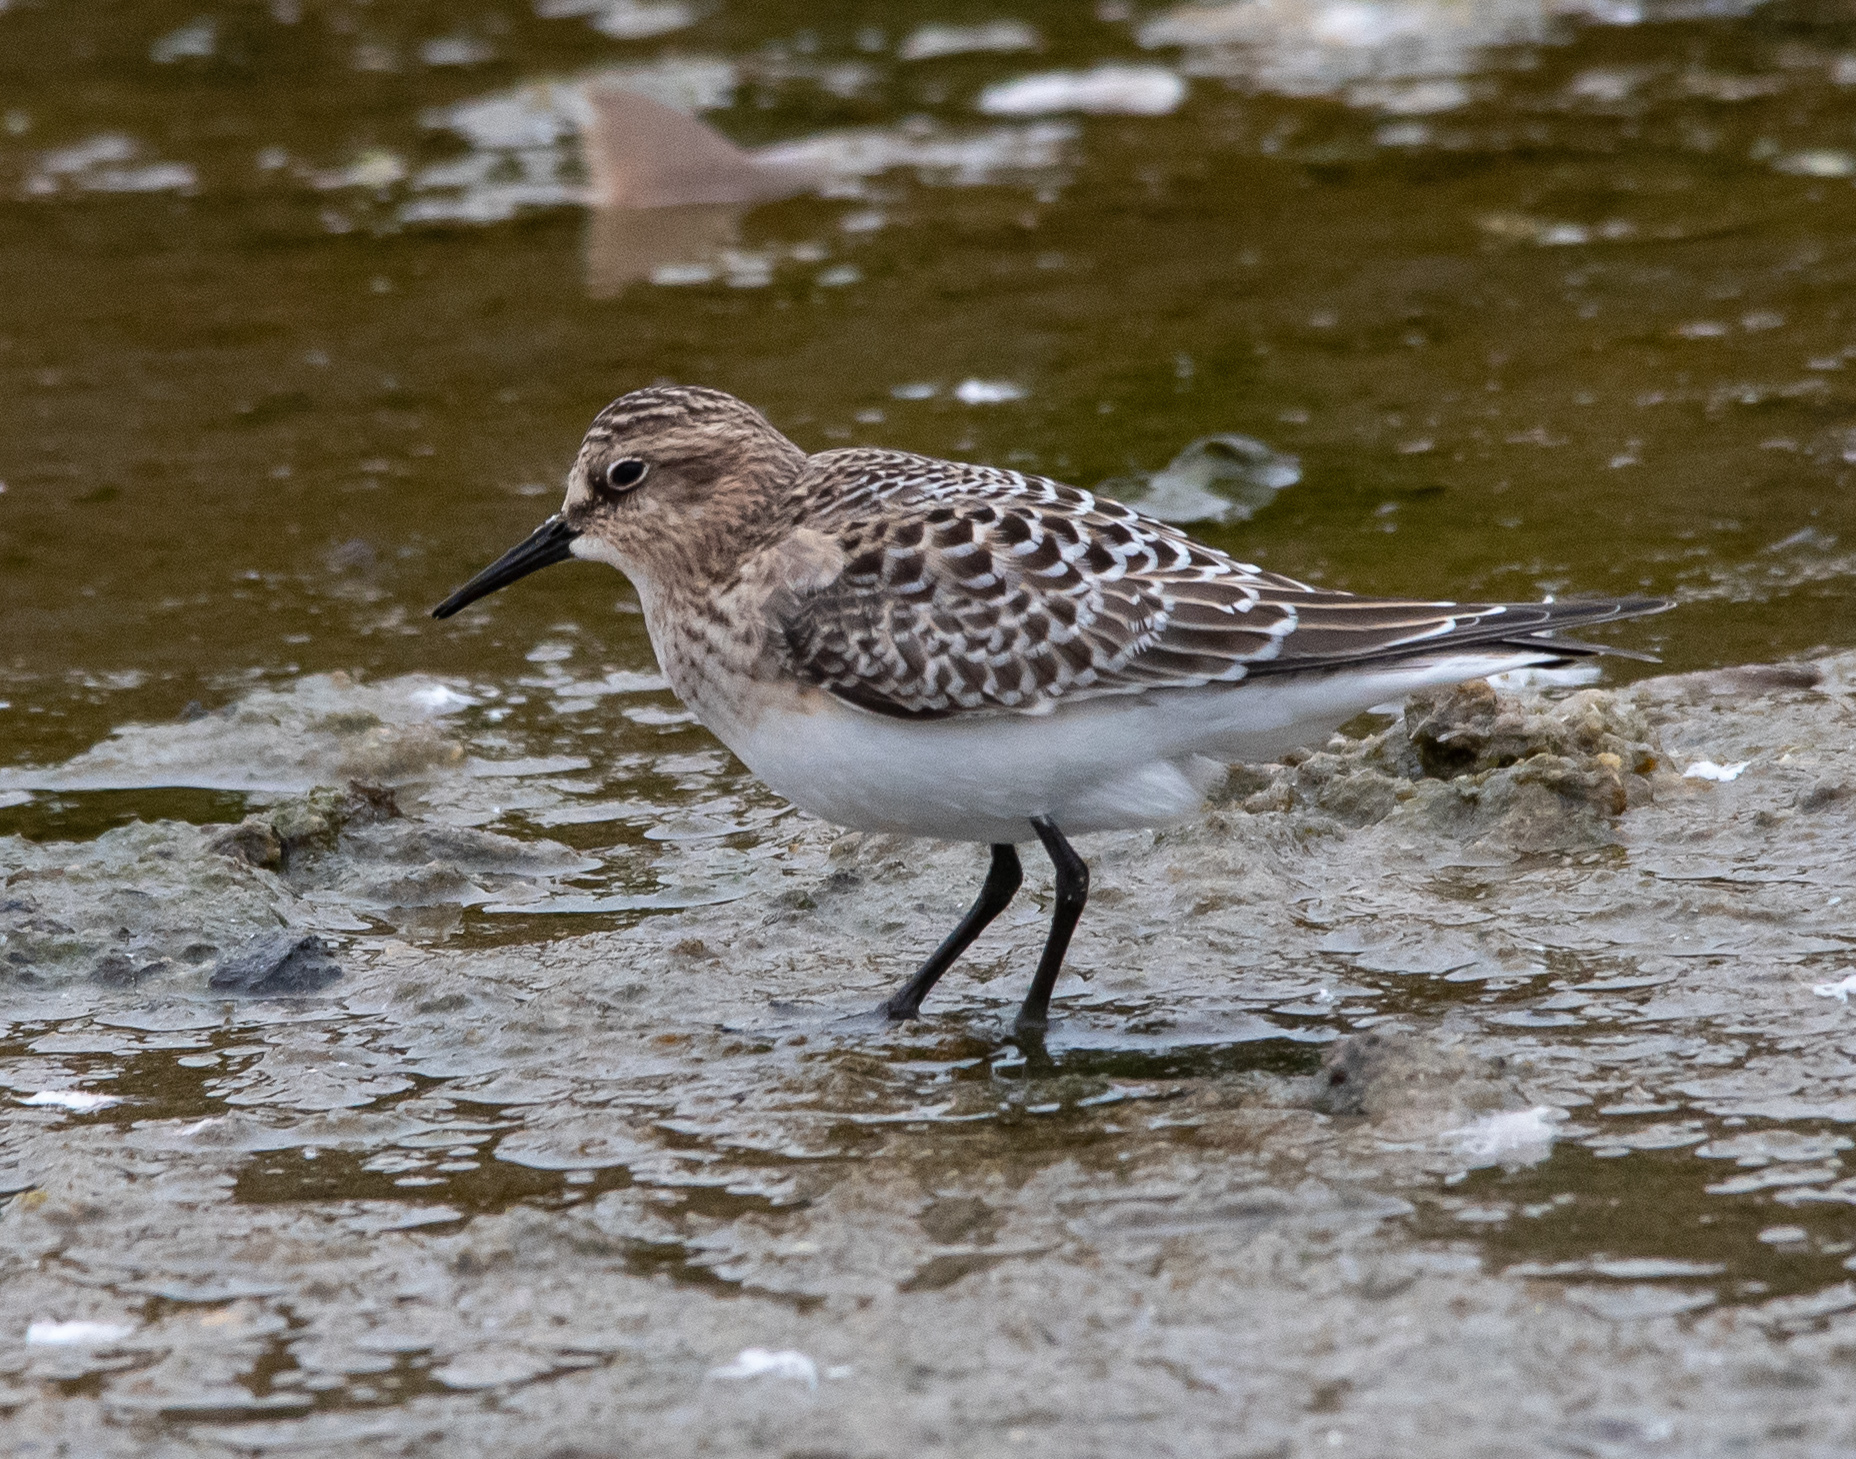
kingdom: Animalia
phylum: Chordata
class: Aves
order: Charadriiformes
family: Scolopacidae
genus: Calidris
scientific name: Calidris bairdii
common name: Baird's sandpiper
